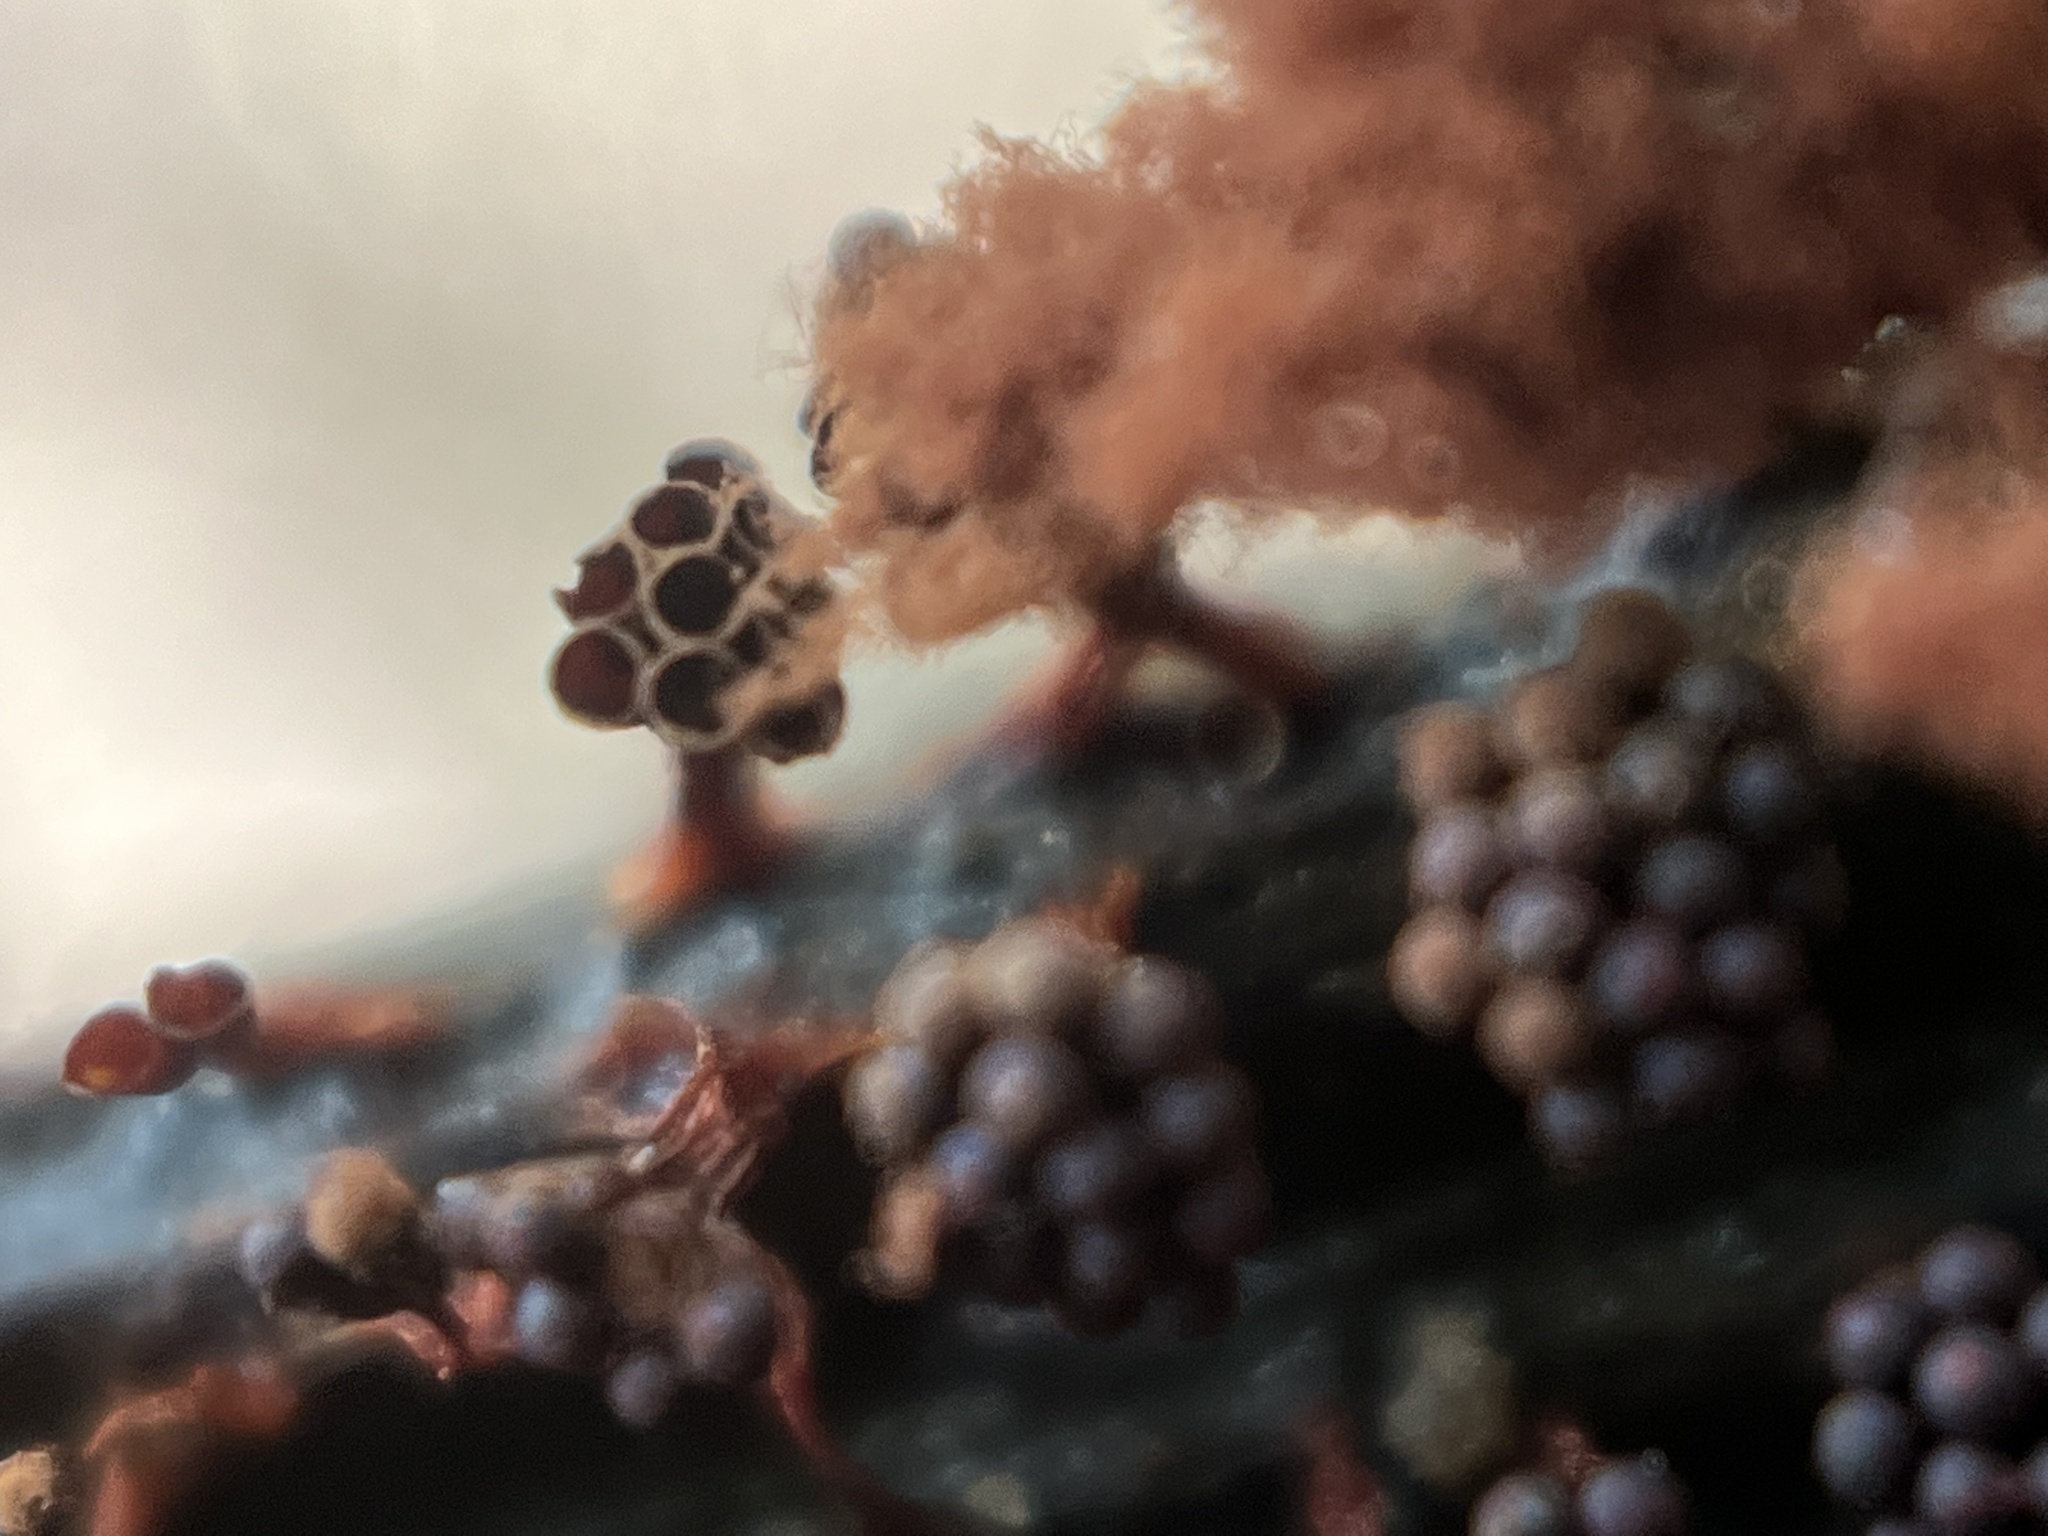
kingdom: Protozoa
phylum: Mycetozoa
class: Myxomycetes
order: Trichiales
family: Trichiaceae
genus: Metatrichia
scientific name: Metatrichia vesparia
